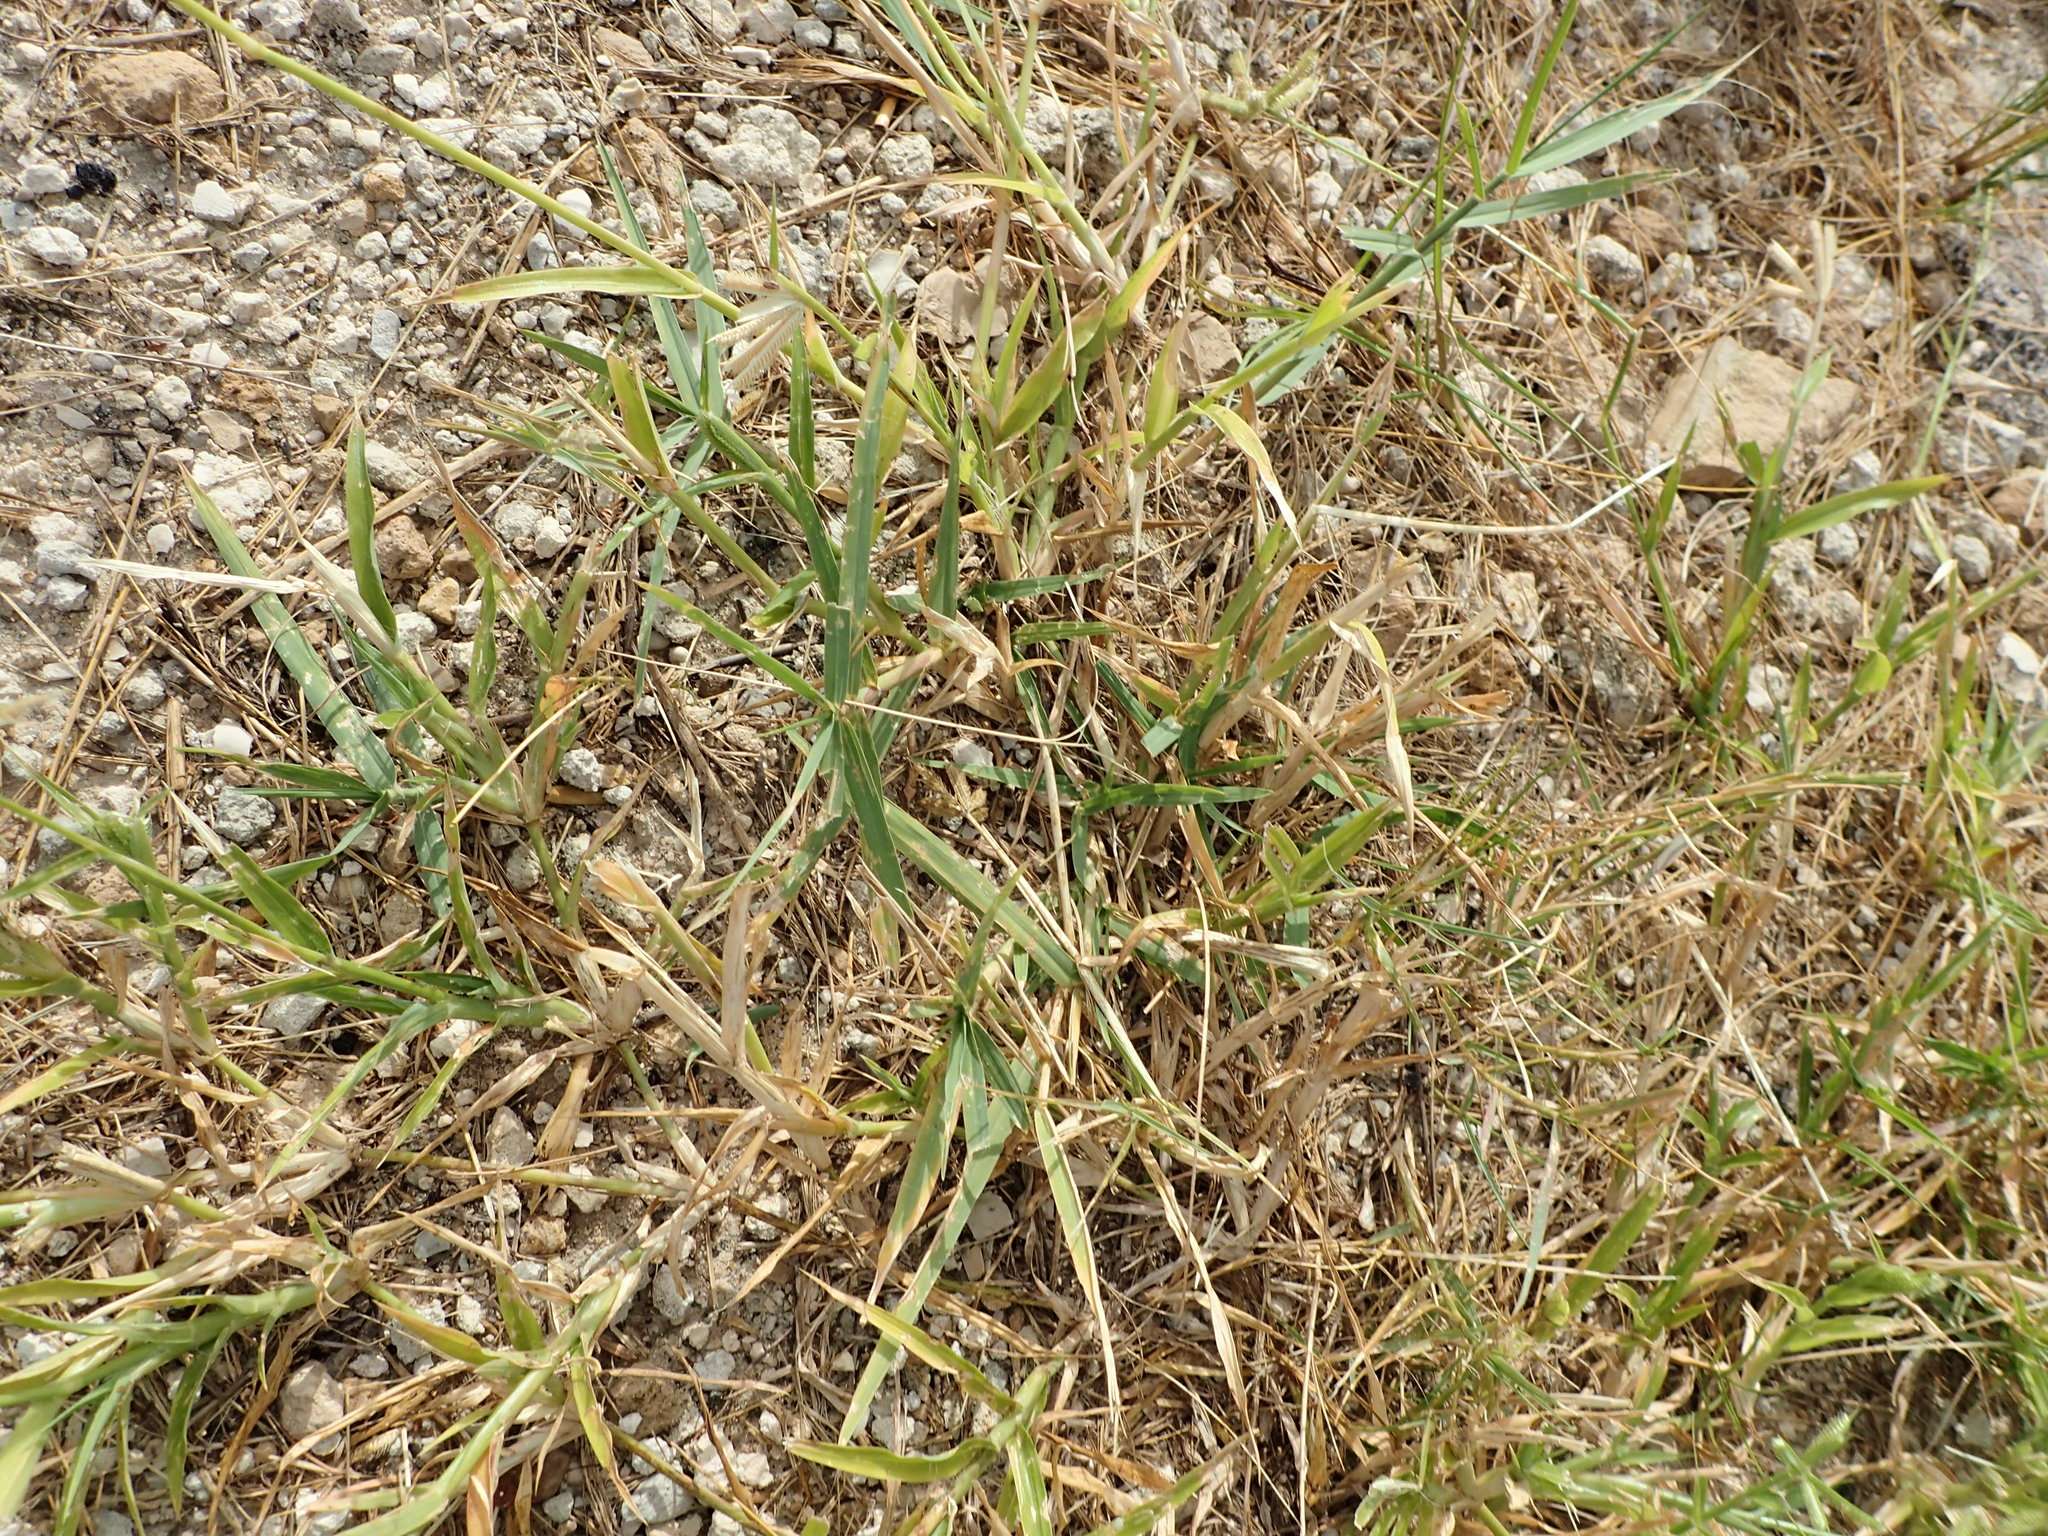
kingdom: Plantae
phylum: Tracheophyta
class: Liliopsida
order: Poales
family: Poaceae
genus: Dactyloctenium
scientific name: Dactyloctenium aegyptium
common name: Egyptian grass
